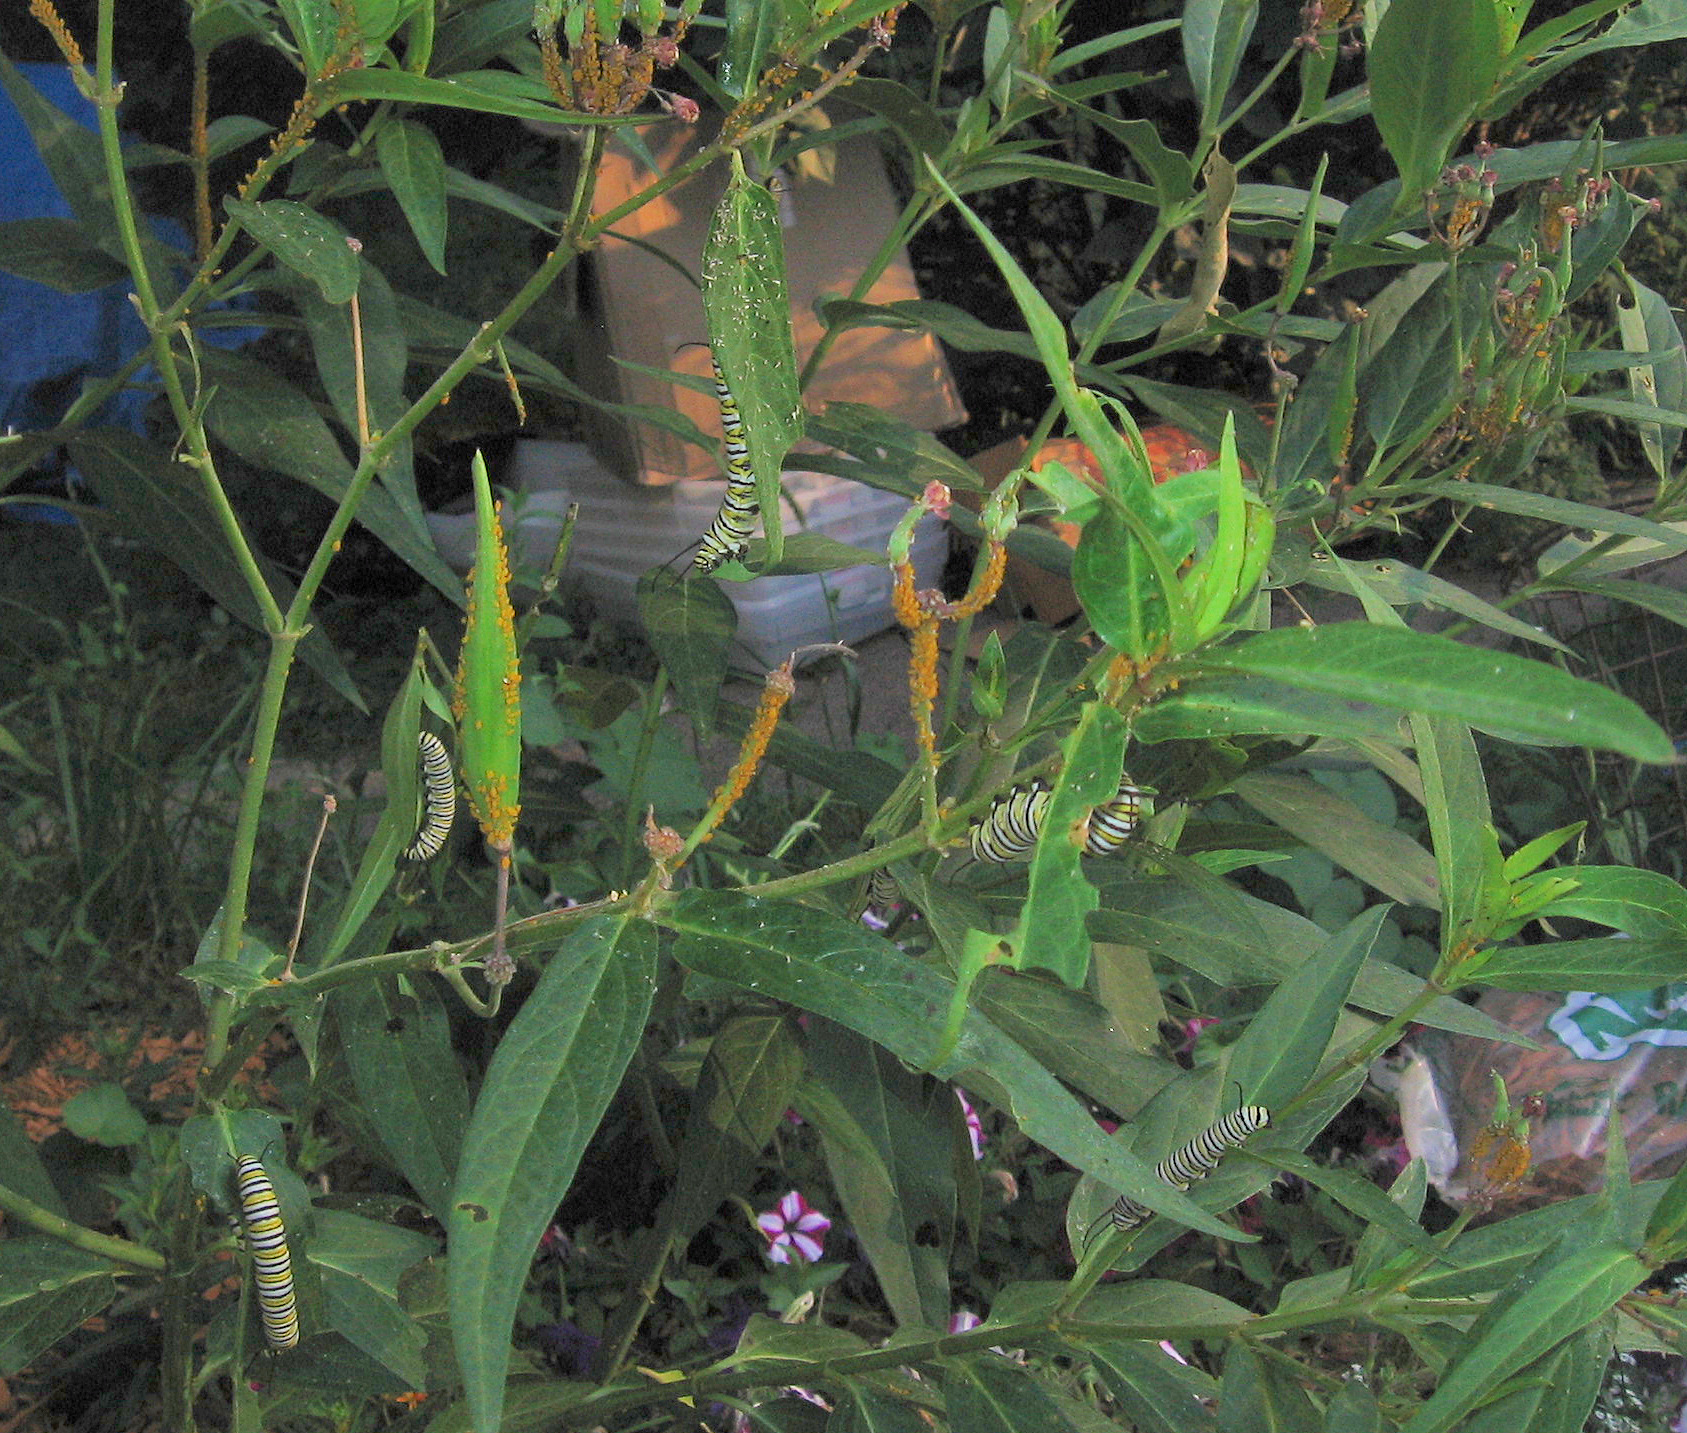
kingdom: Animalia
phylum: Arthropoda
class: Insecta
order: Lepidoptera
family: Nymphalidae
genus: Danaus
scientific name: Danaus plexippus
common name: Monarch
